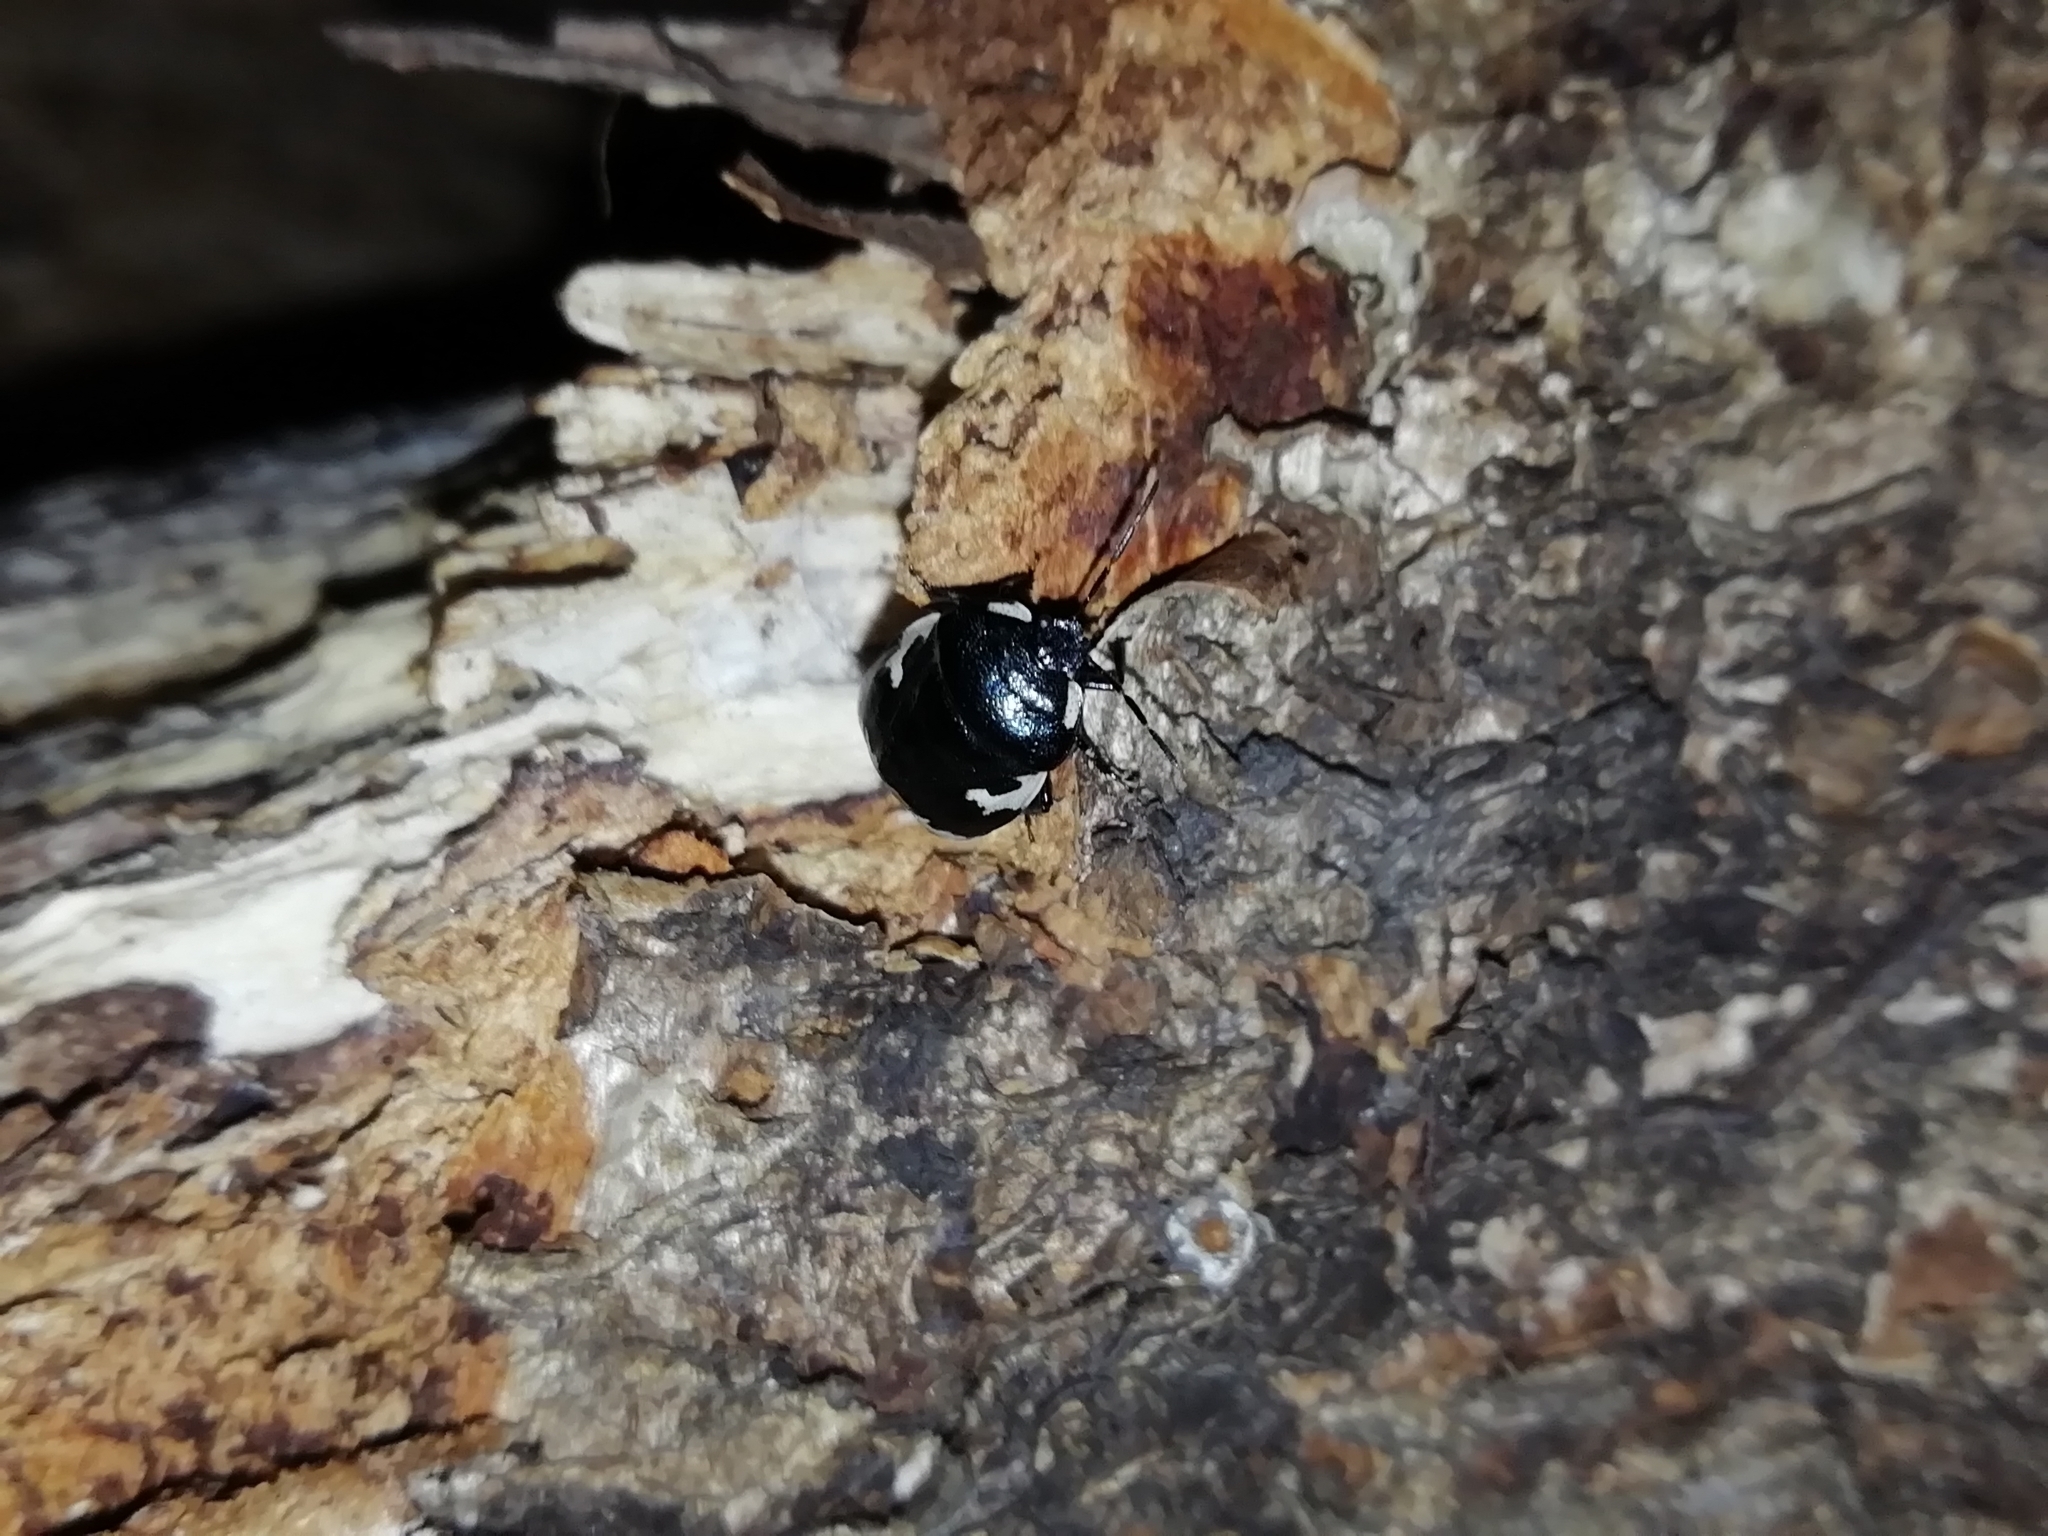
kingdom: Animalia
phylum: Arthropoda
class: Insecta
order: Hemiptera
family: Cydnidae
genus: Tritomegas
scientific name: Tritomegas bicolor
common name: Pied shieldbug
